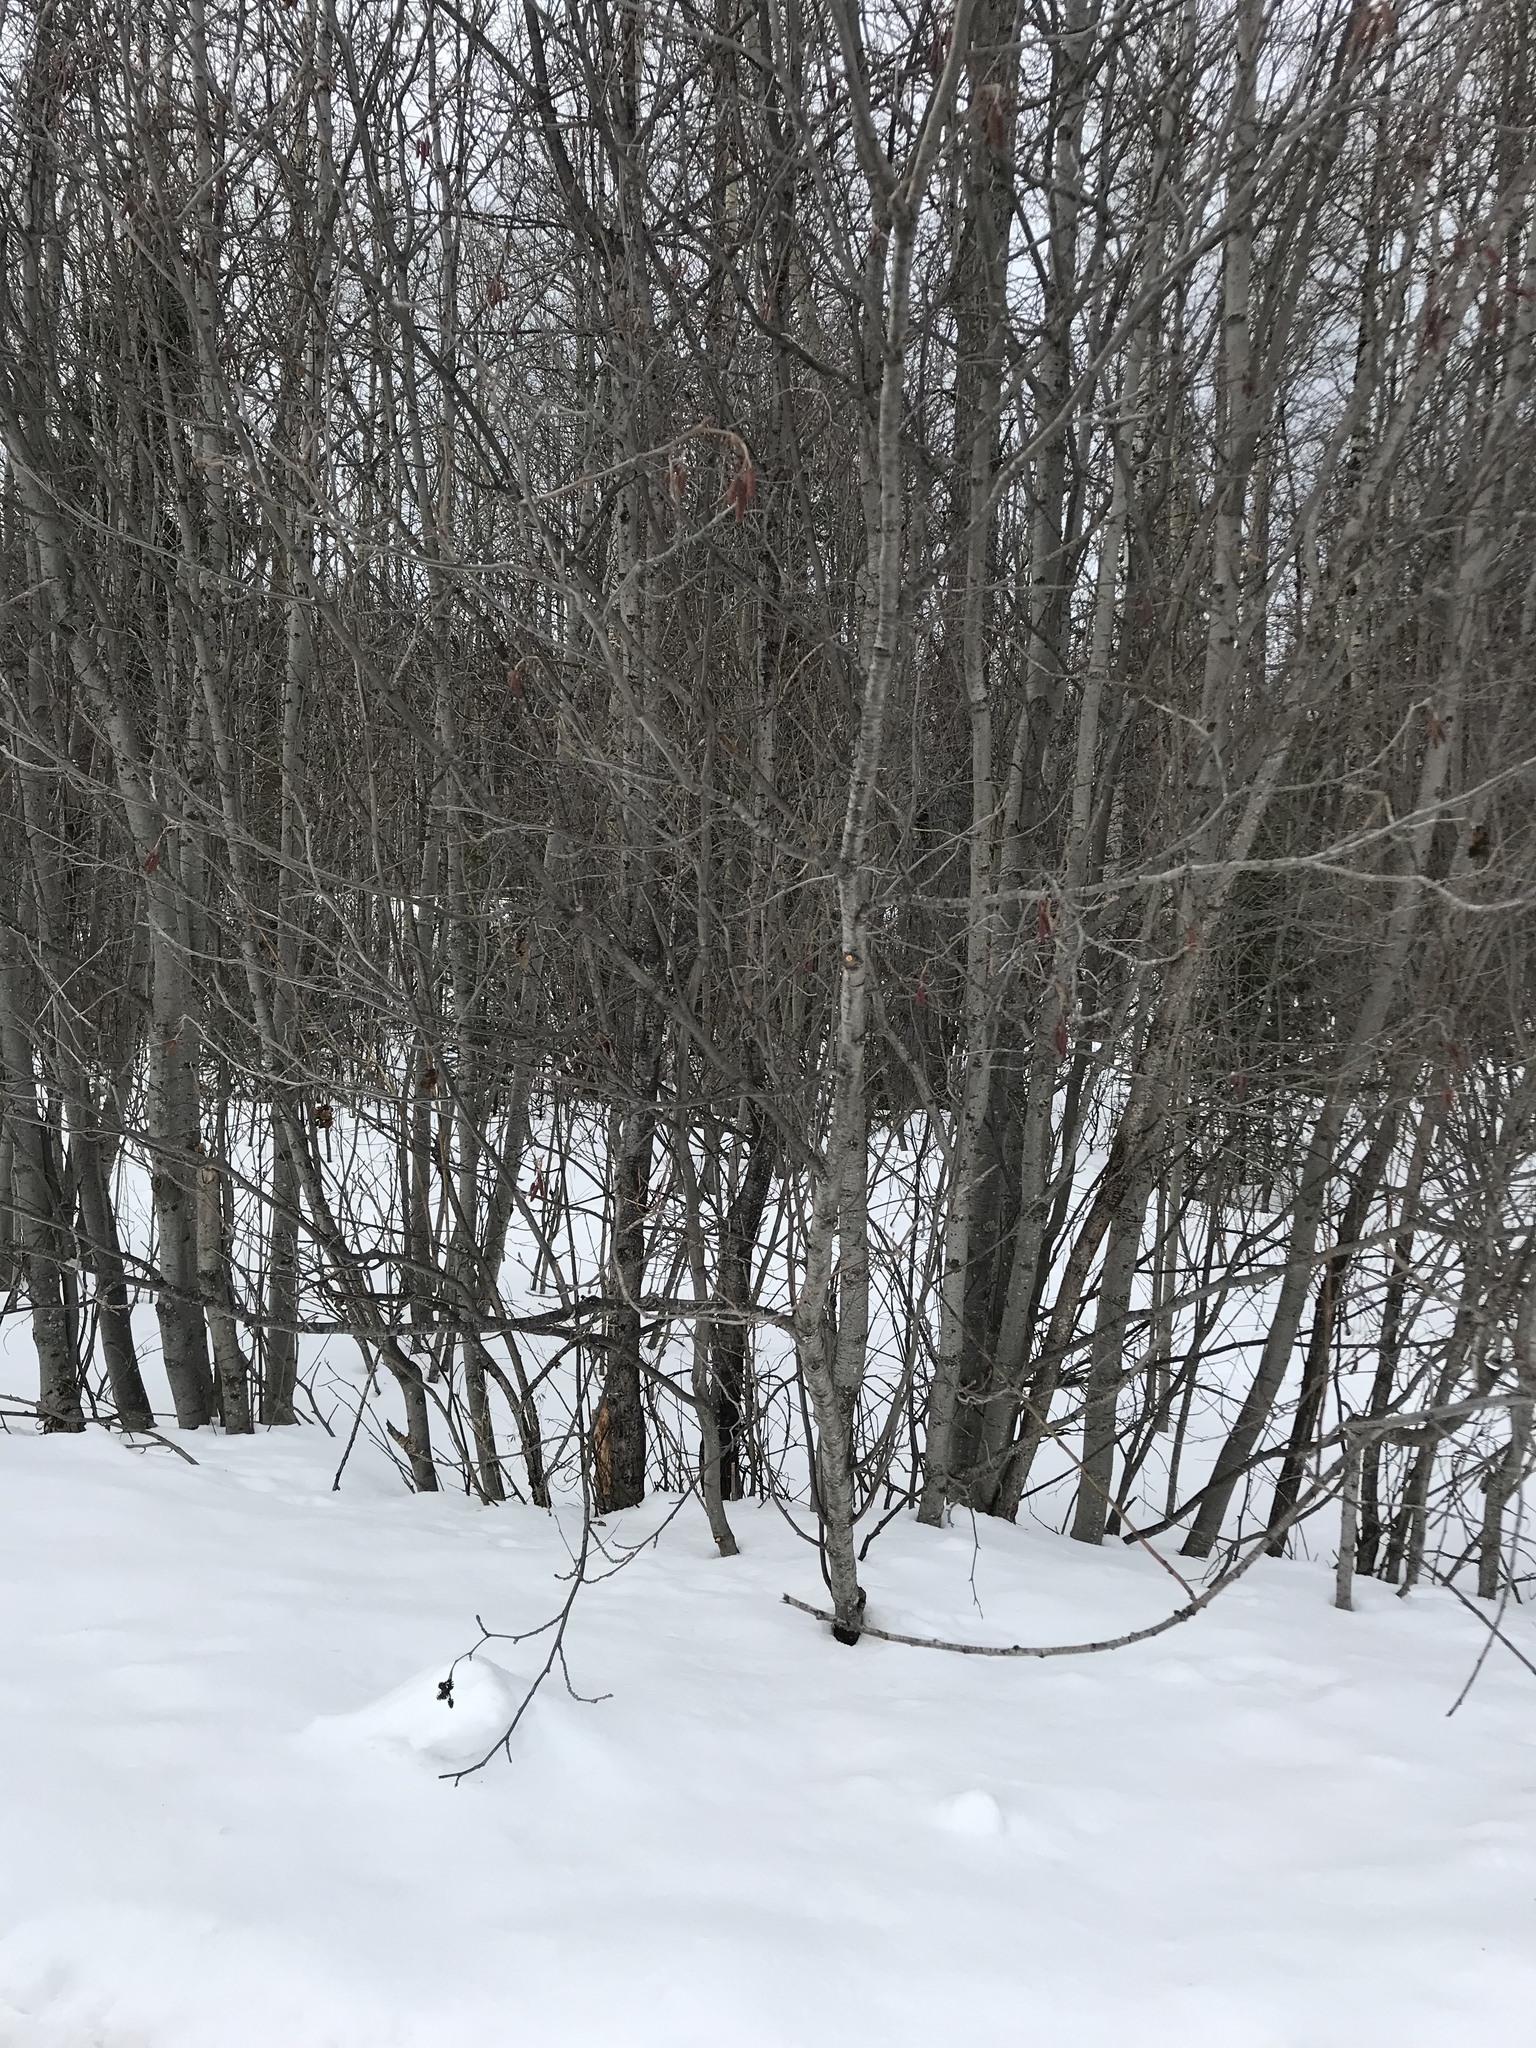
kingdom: Plantae
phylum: Tracheophyta
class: Magnoliopsida
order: Fagales
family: Betulaceae
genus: Alnus
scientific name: Alnus incana
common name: Grey alder
